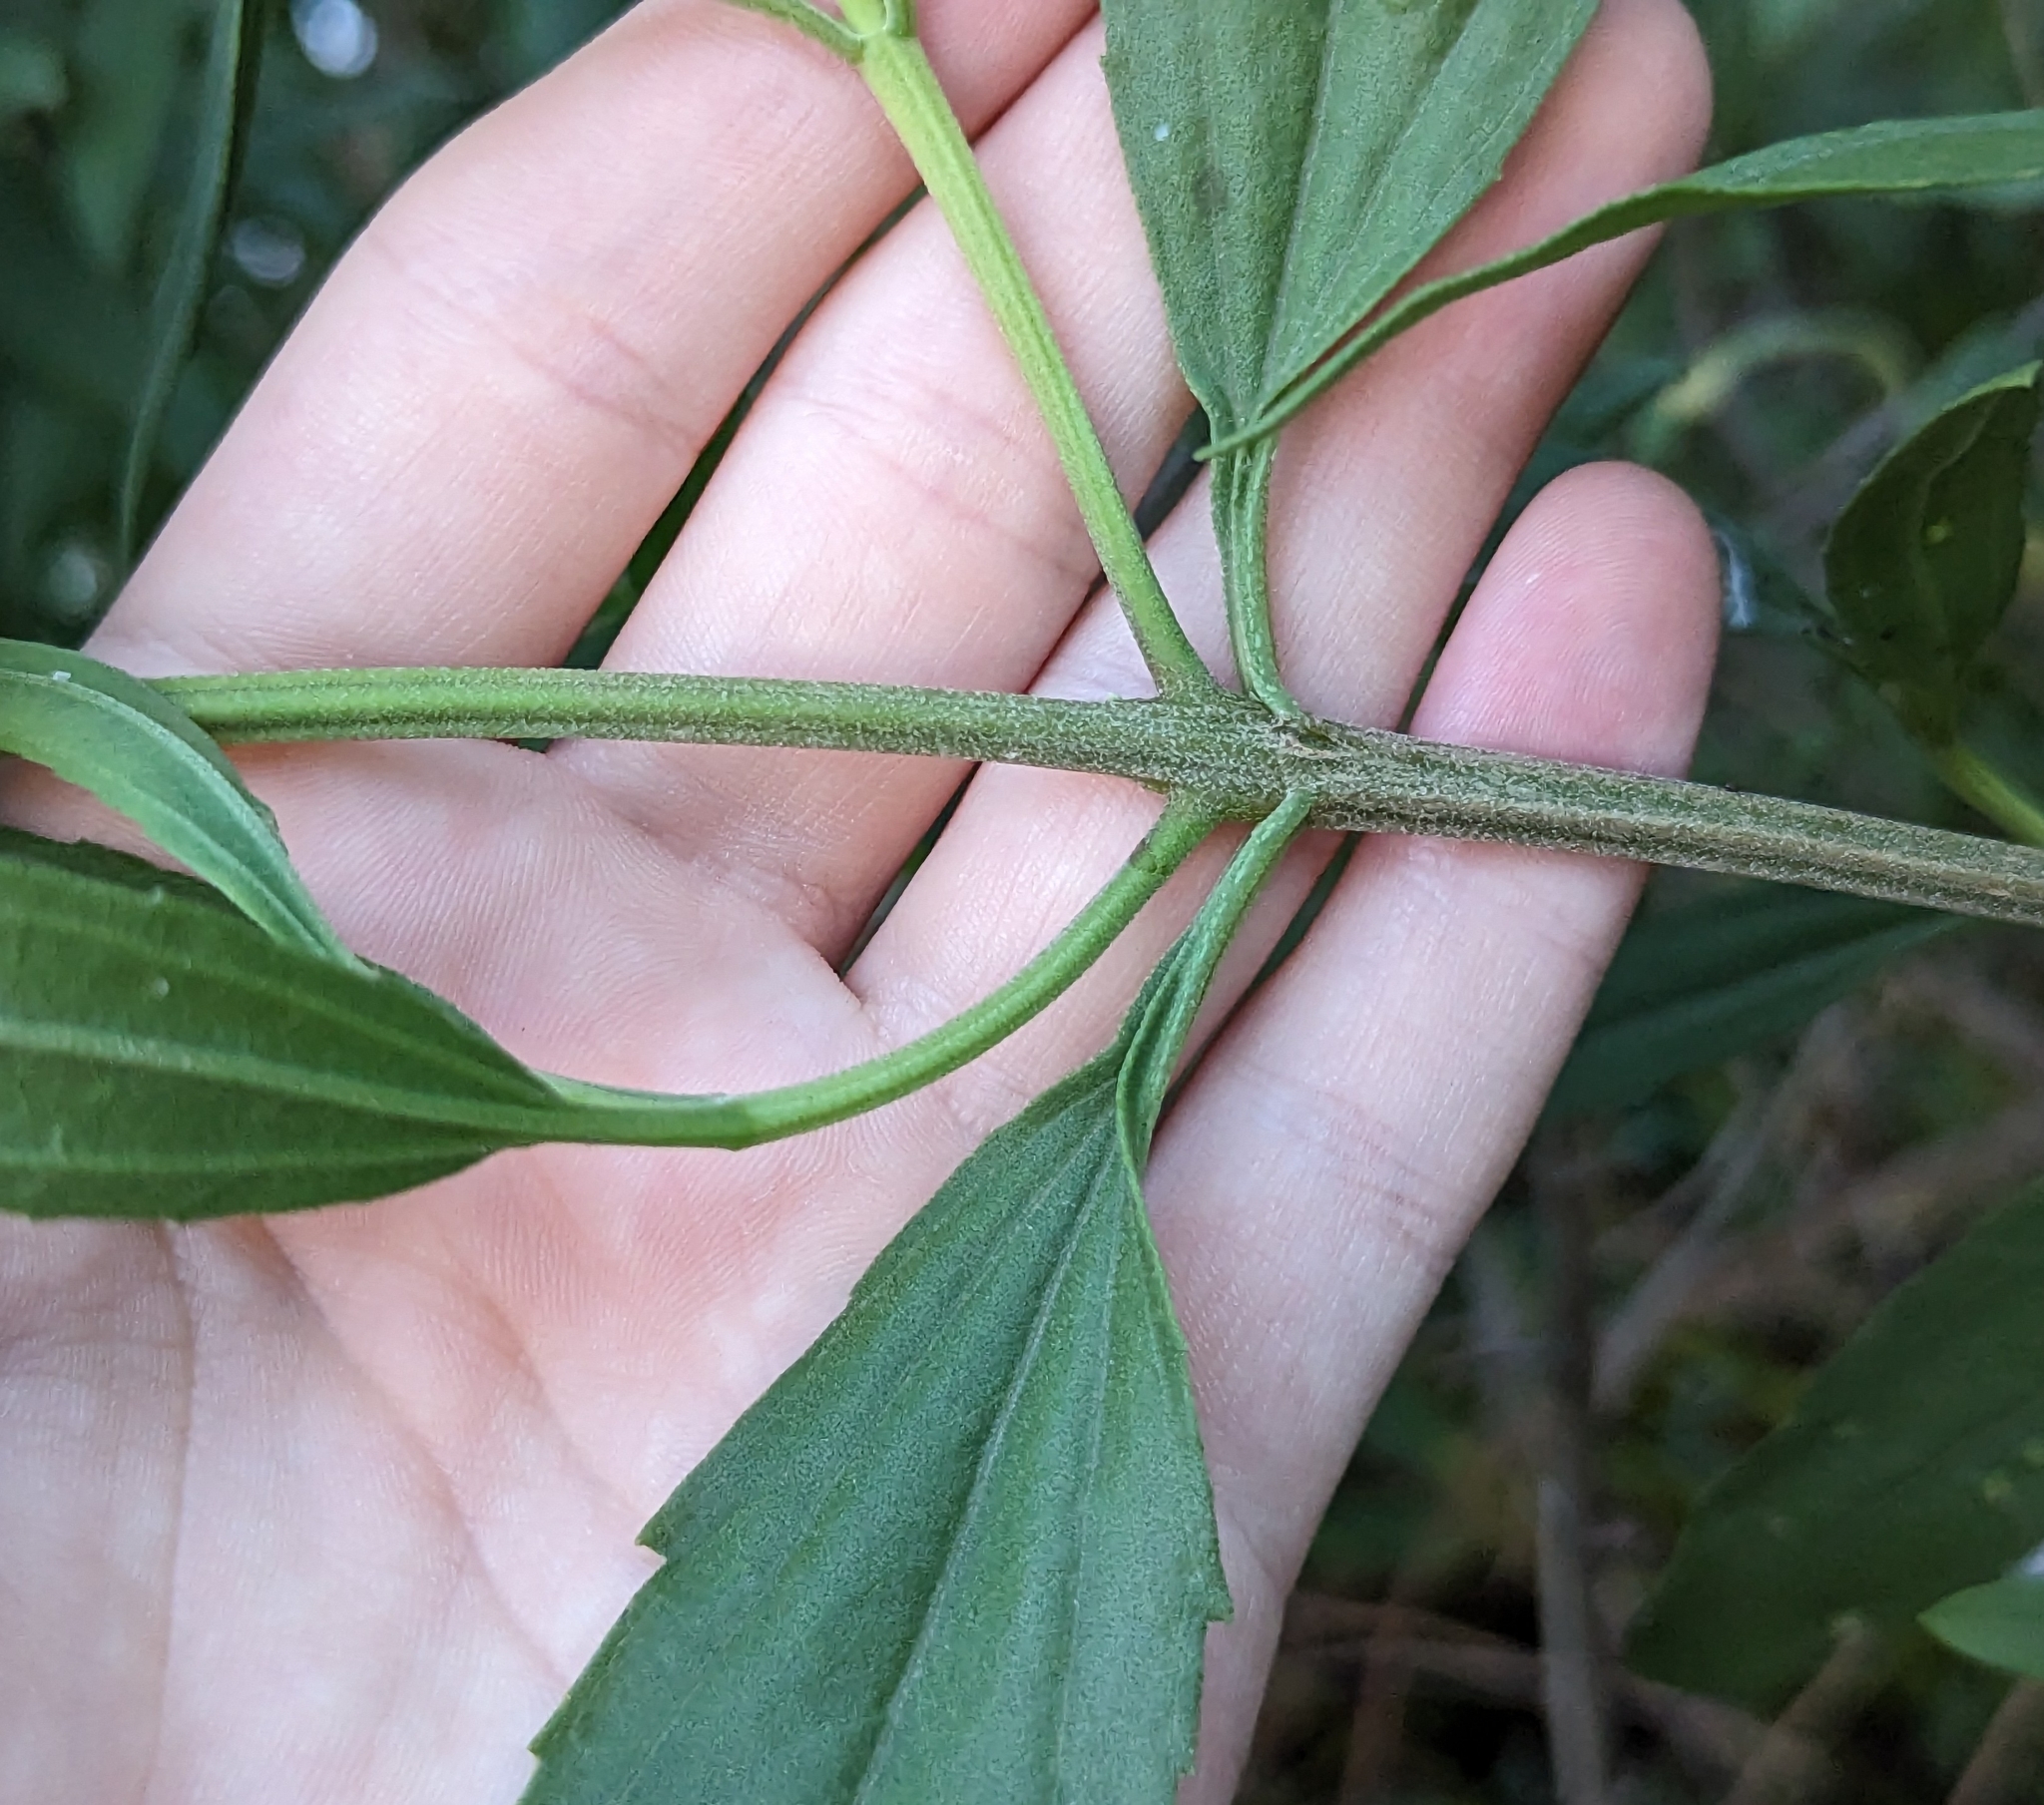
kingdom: Plantae
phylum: Tracheophyta
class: Magnoliopsida
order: Asterales
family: Asteraceae
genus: Iva
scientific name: Iva frutescens
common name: Big-leaved marsh-elder
